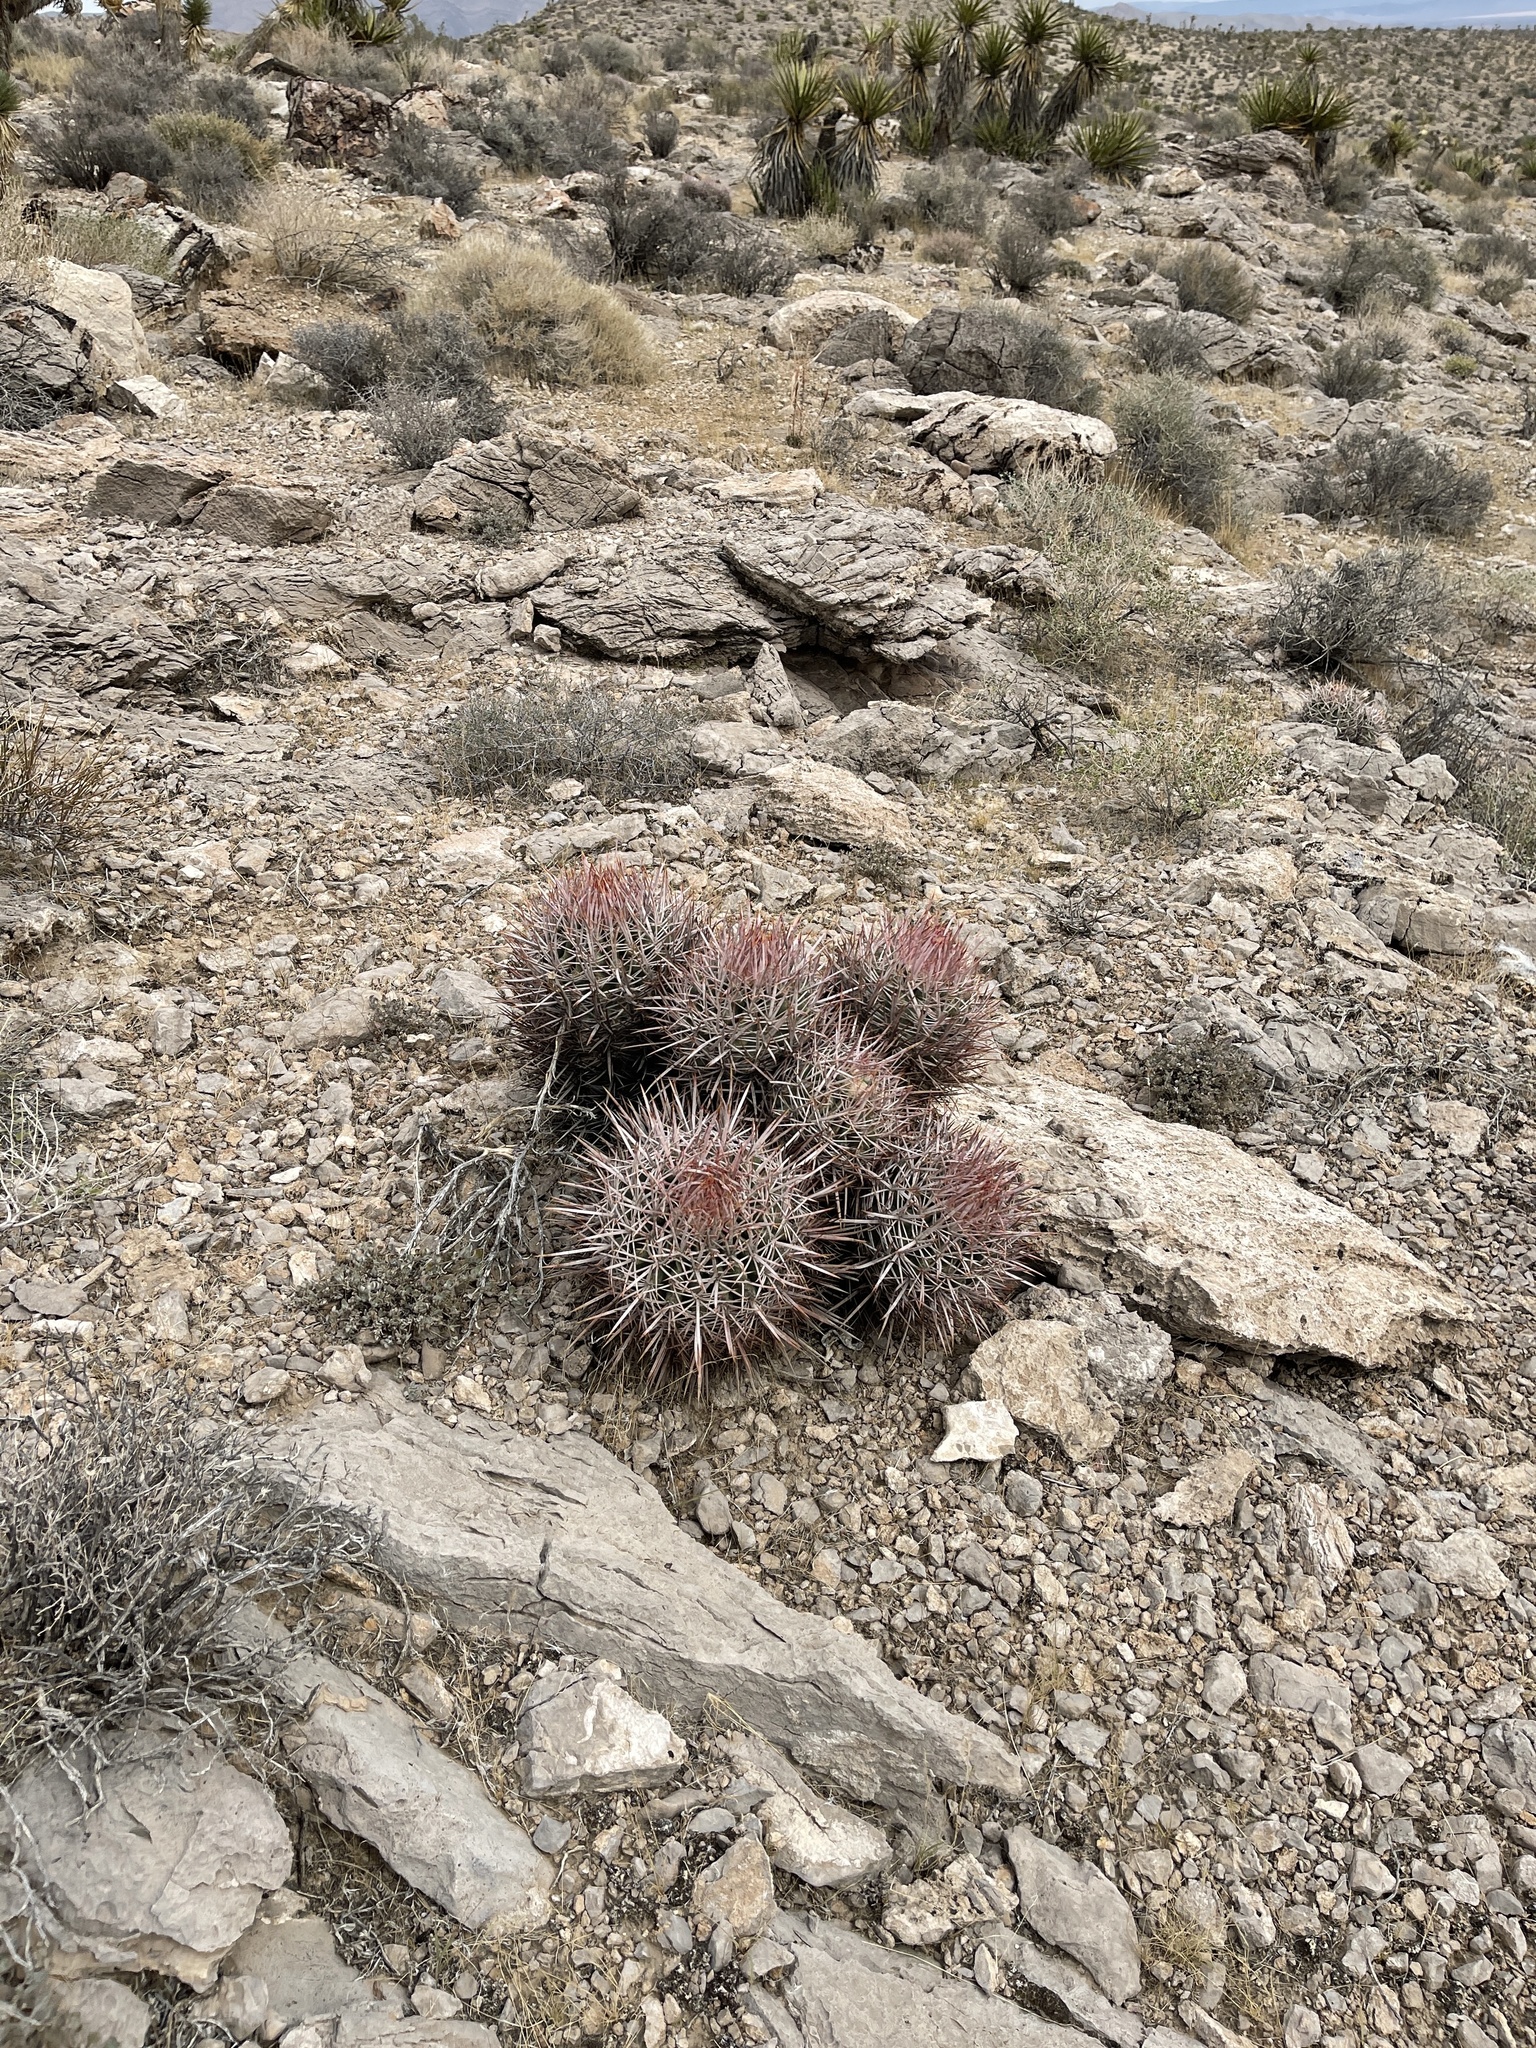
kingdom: Plantae
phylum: Tracheophyta
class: Magnoliopsida
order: Caryophyllales
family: Cactaceae
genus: Echinocactus
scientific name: Echinocactus polycephalus
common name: Cottontop cactus
